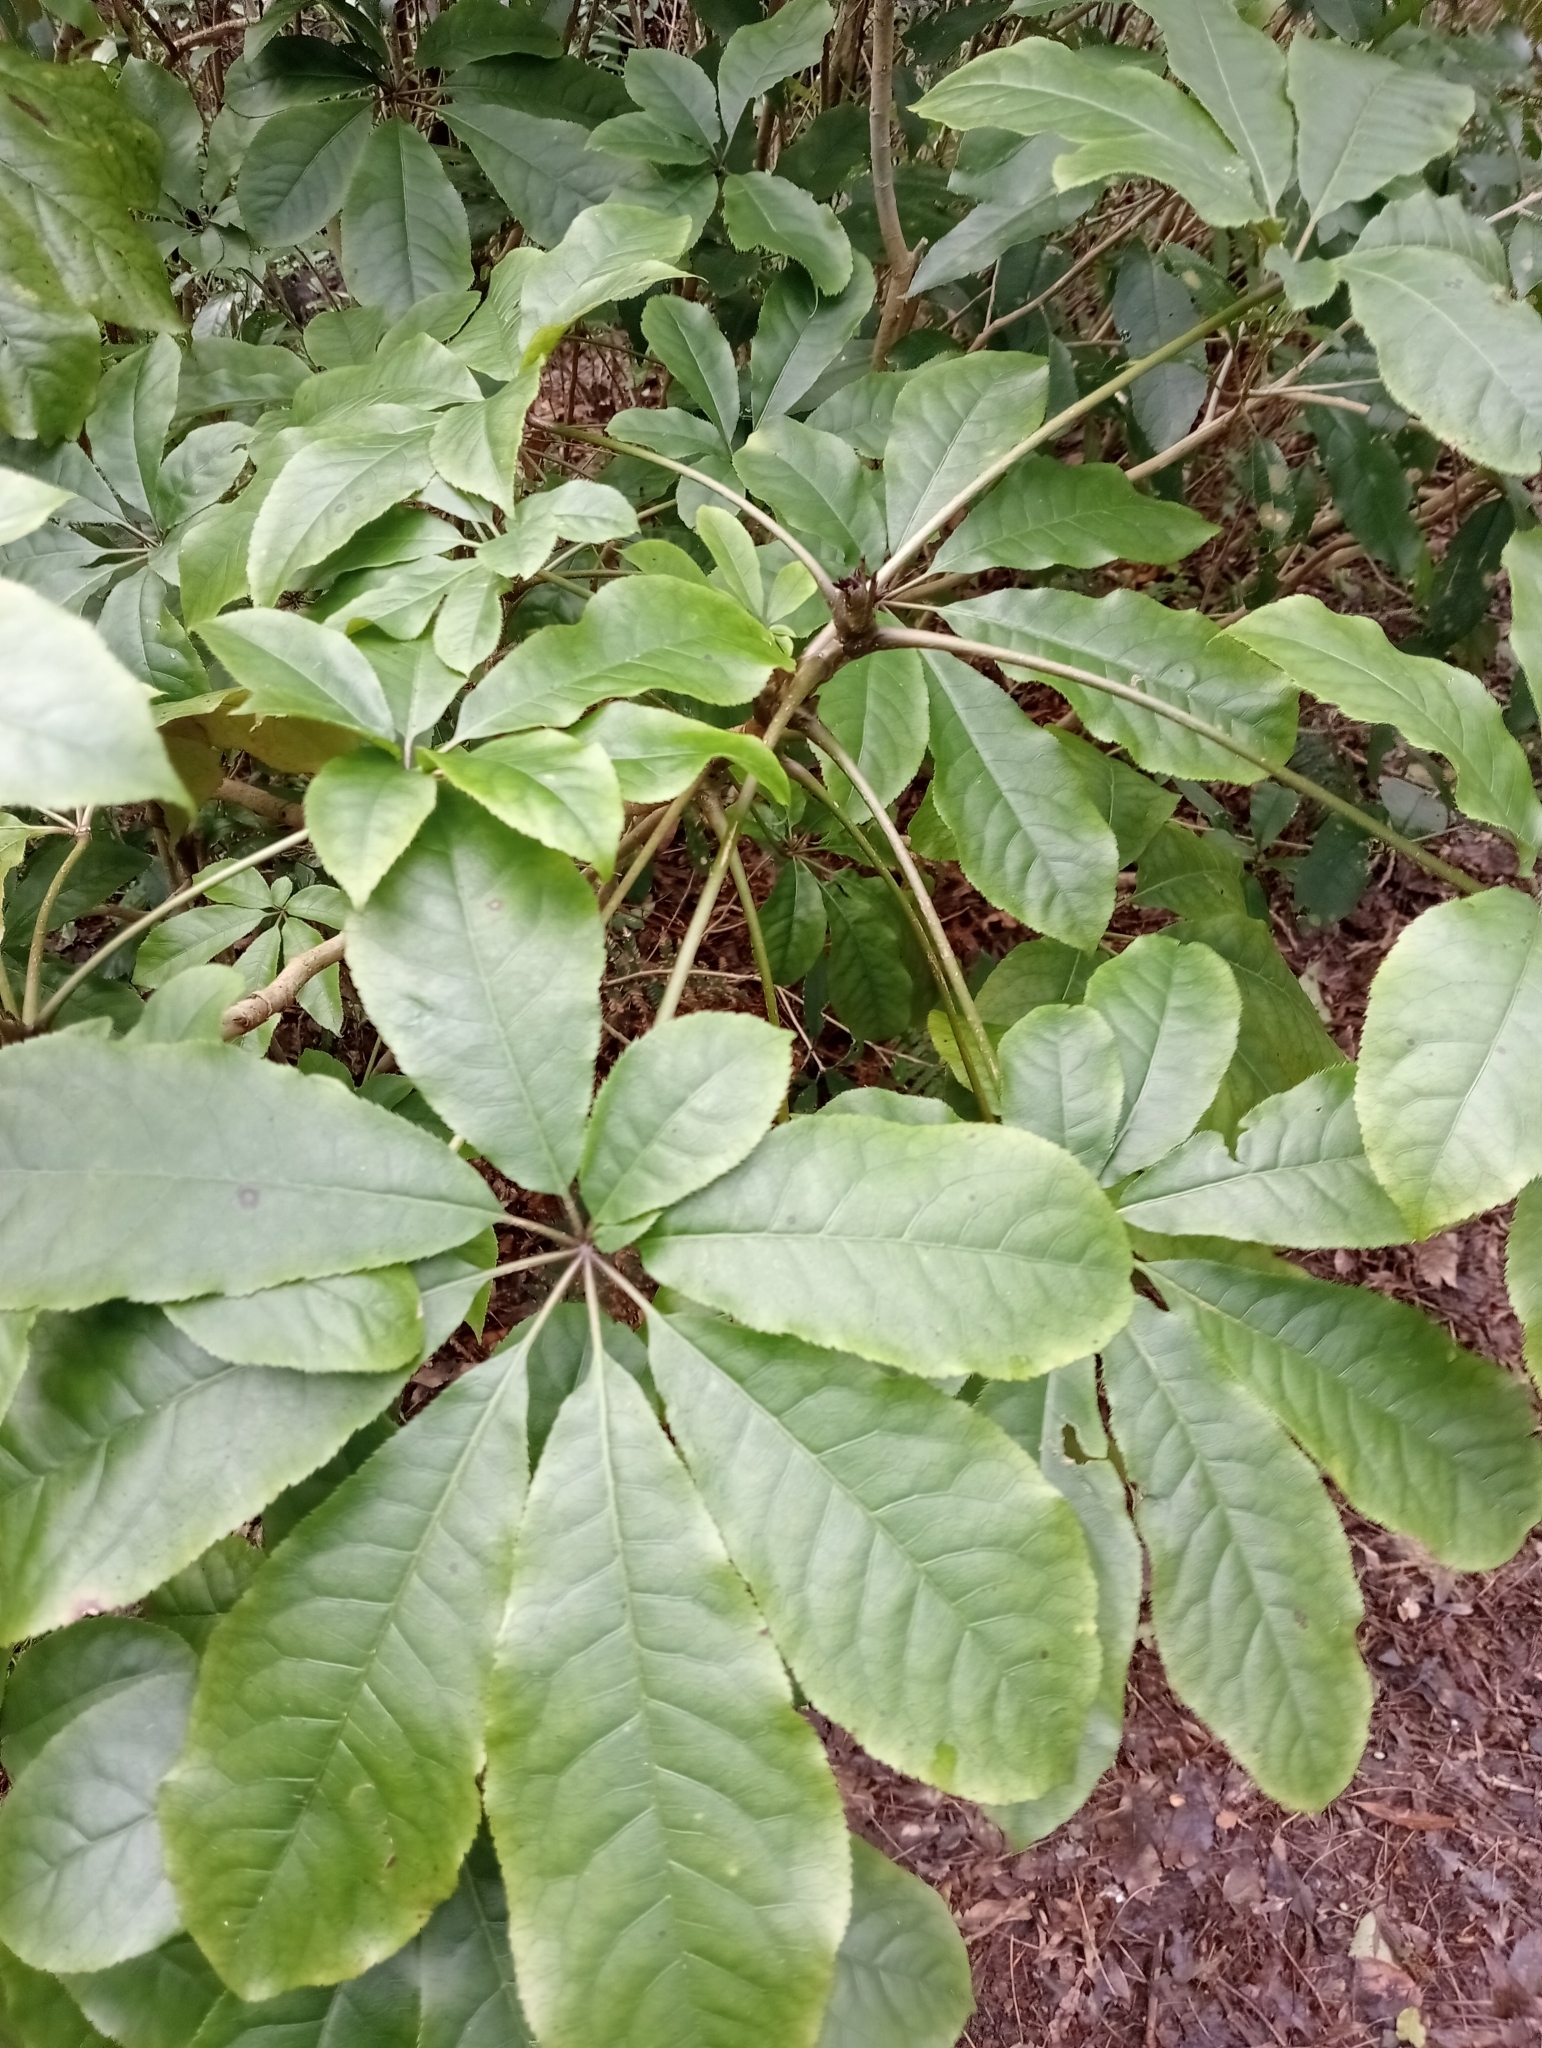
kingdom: Plantae
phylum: Tracheophyta
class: Magnoliopsida
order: Apiales
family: Araliaceae
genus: Schefflera
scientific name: Schefflera digitata
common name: Pate
